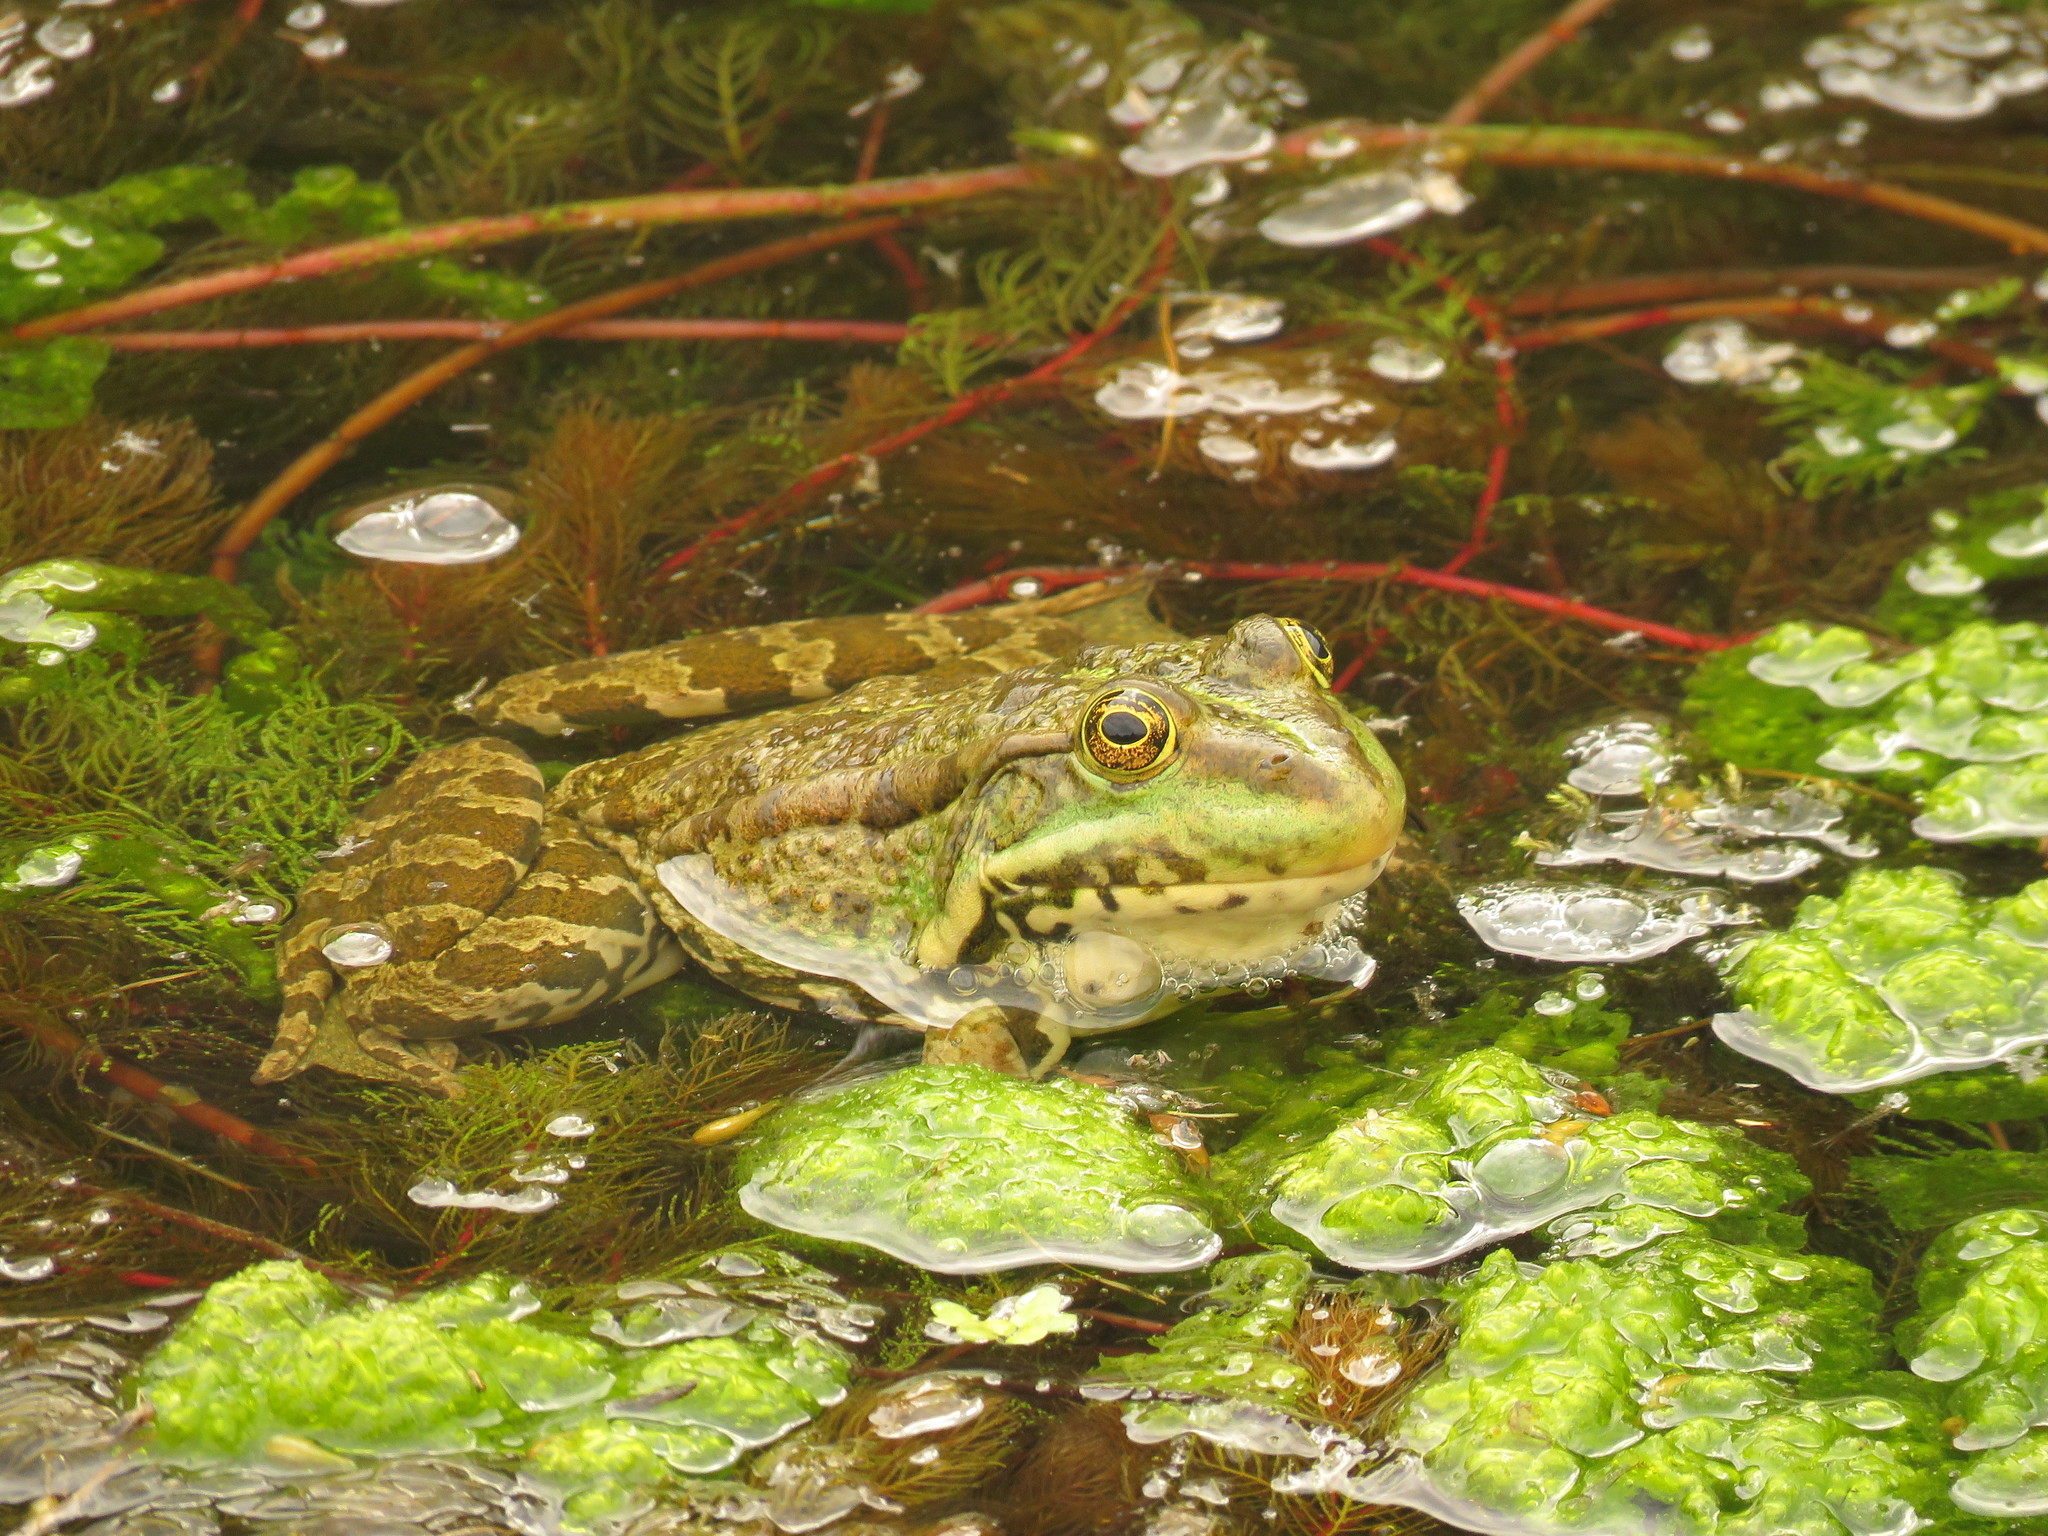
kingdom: Animalia
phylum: Chordata
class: Amphibia
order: Anura
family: Ranidae
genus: Pelophylax
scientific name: Pelophylax ridibundus
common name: Marsh frog
